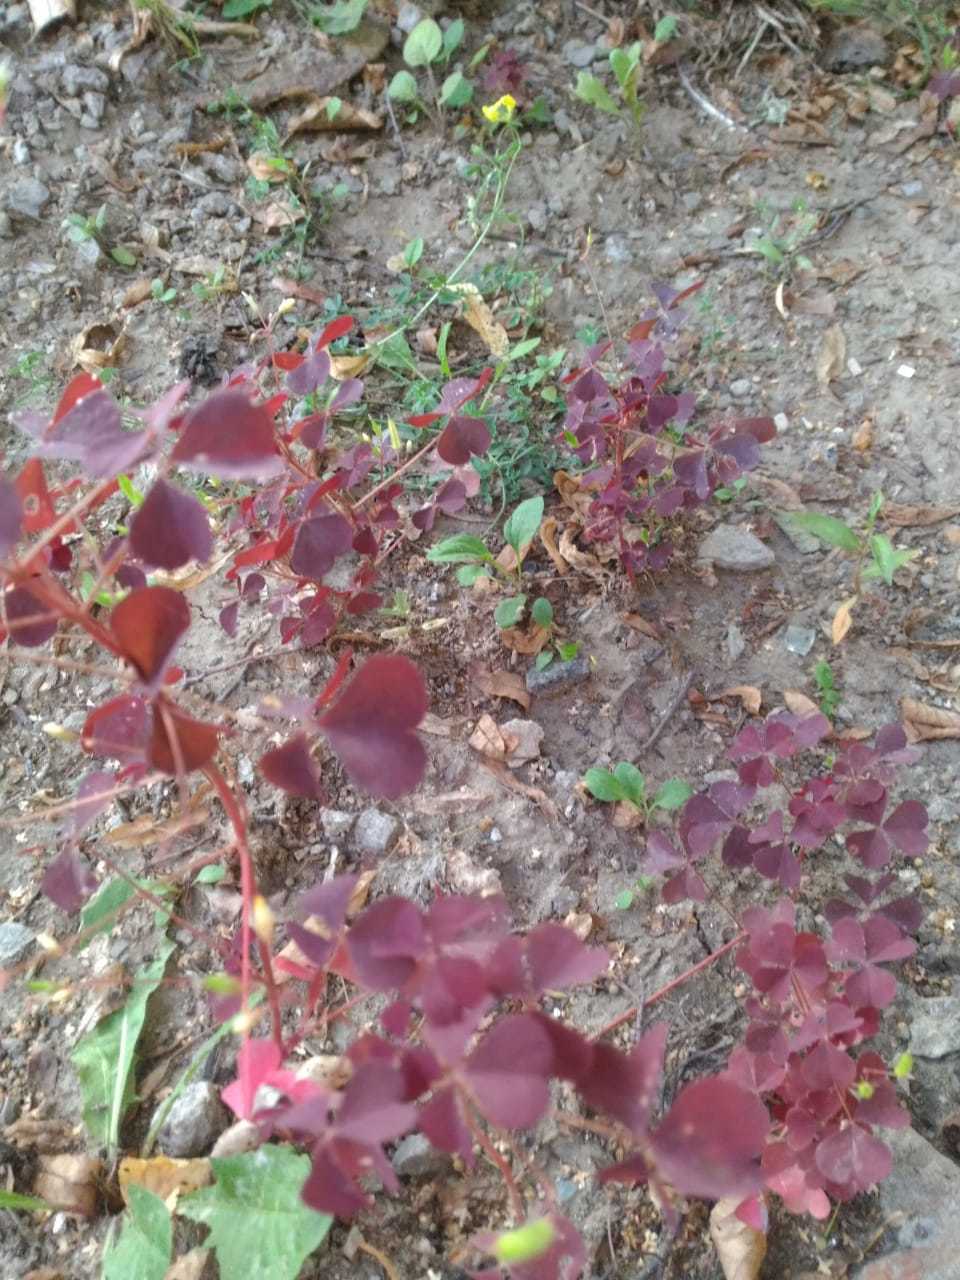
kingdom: Plantae
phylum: Tracheophyta
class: Magnoliopsida
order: Oxalidales
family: Oxalidaceae
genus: Oxalis
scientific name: Oxalis stricta
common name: Upright yellow-sorrel
